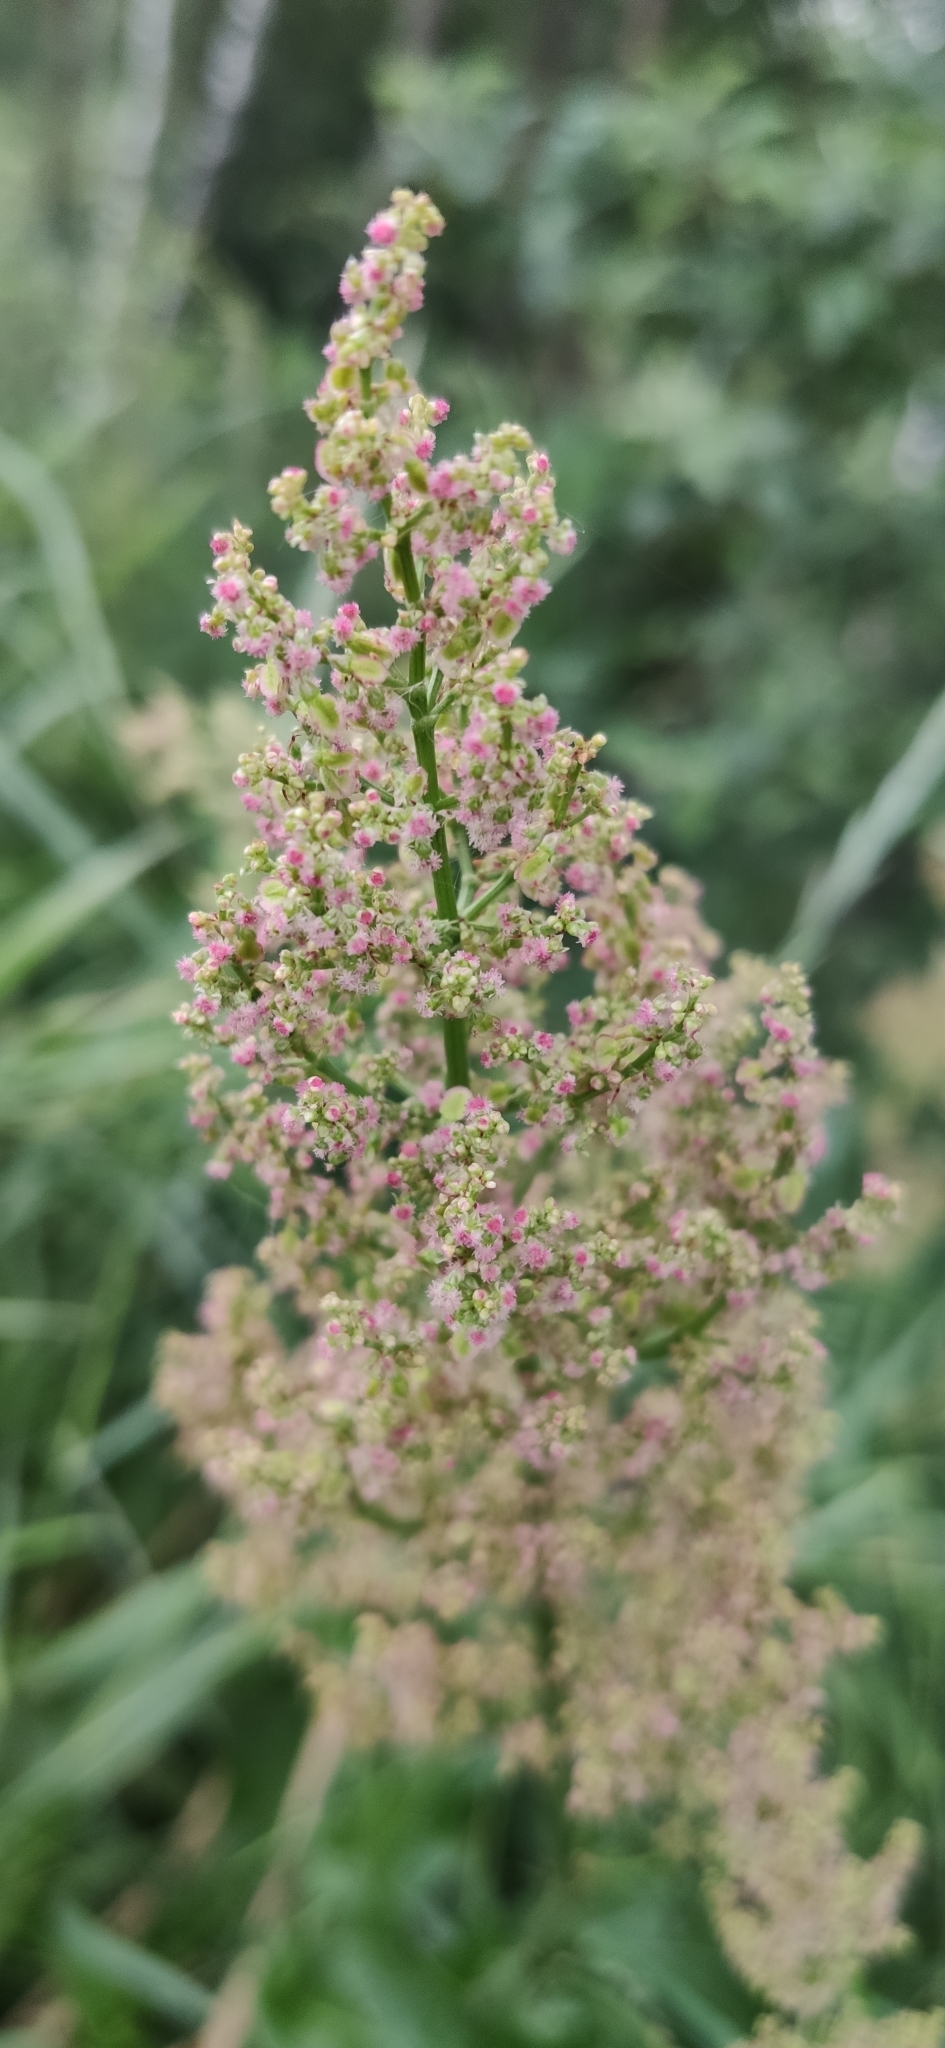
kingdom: Plantae
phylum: Tracheophyta
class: Magnoliopsida
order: Caryophyllales
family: Polygonaceae
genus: Rumex
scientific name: Rumex thyrsiflorus
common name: Garden sorrel
